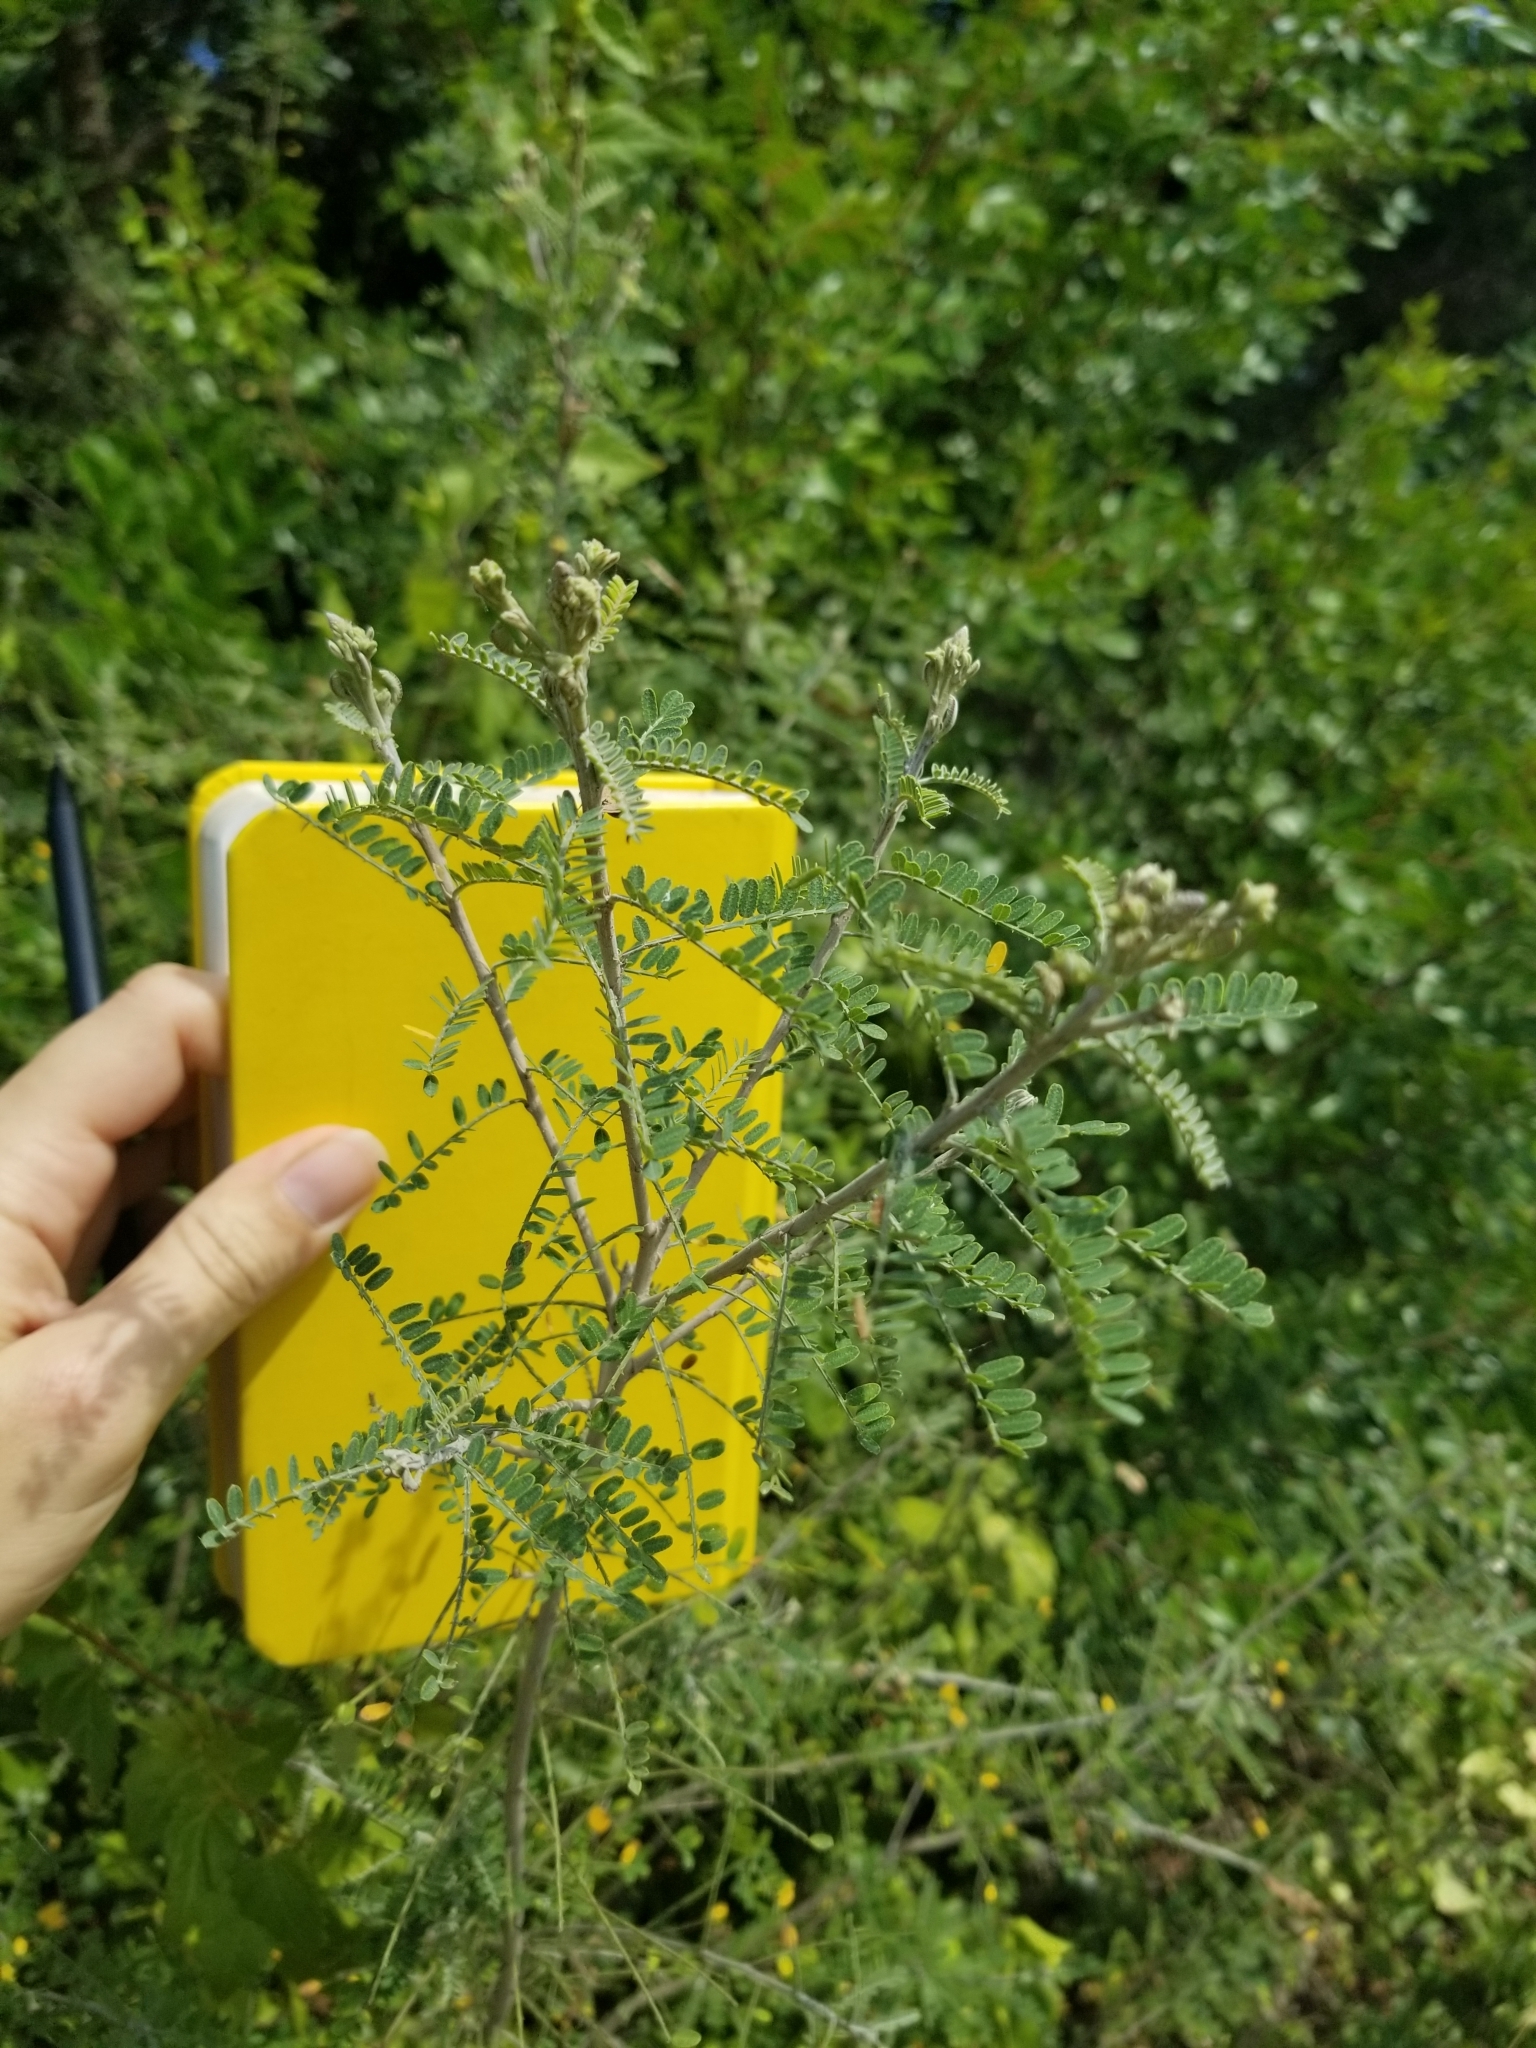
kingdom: Plantae
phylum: Tracheophyta
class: Magnoliopsida
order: Fabales
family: Fabaceae
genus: Eysenhardtia
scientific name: Eysenhardtia texana
